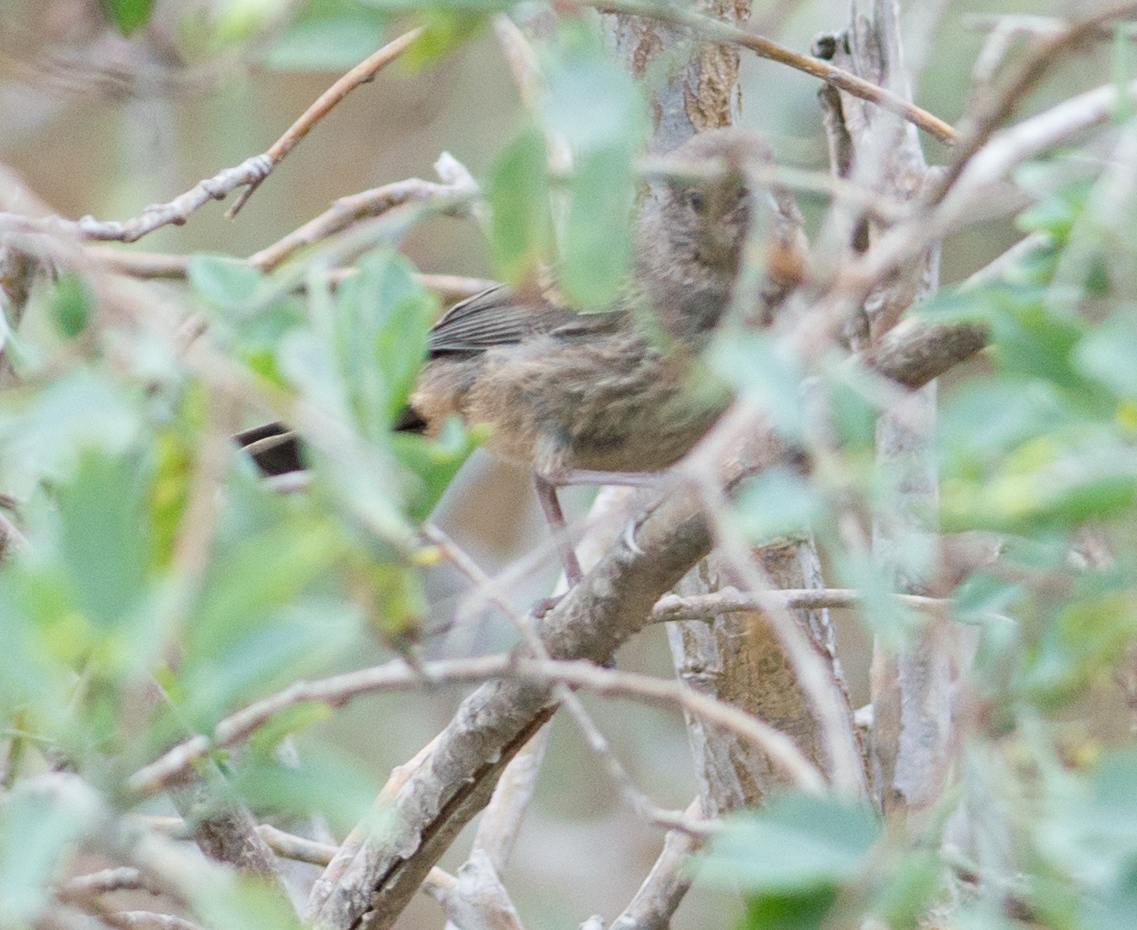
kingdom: Animalia
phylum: Chordata
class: Aves
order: Passeriformes
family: Passerellidae
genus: Melozone
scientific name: Melozone crissalis
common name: California towhee
